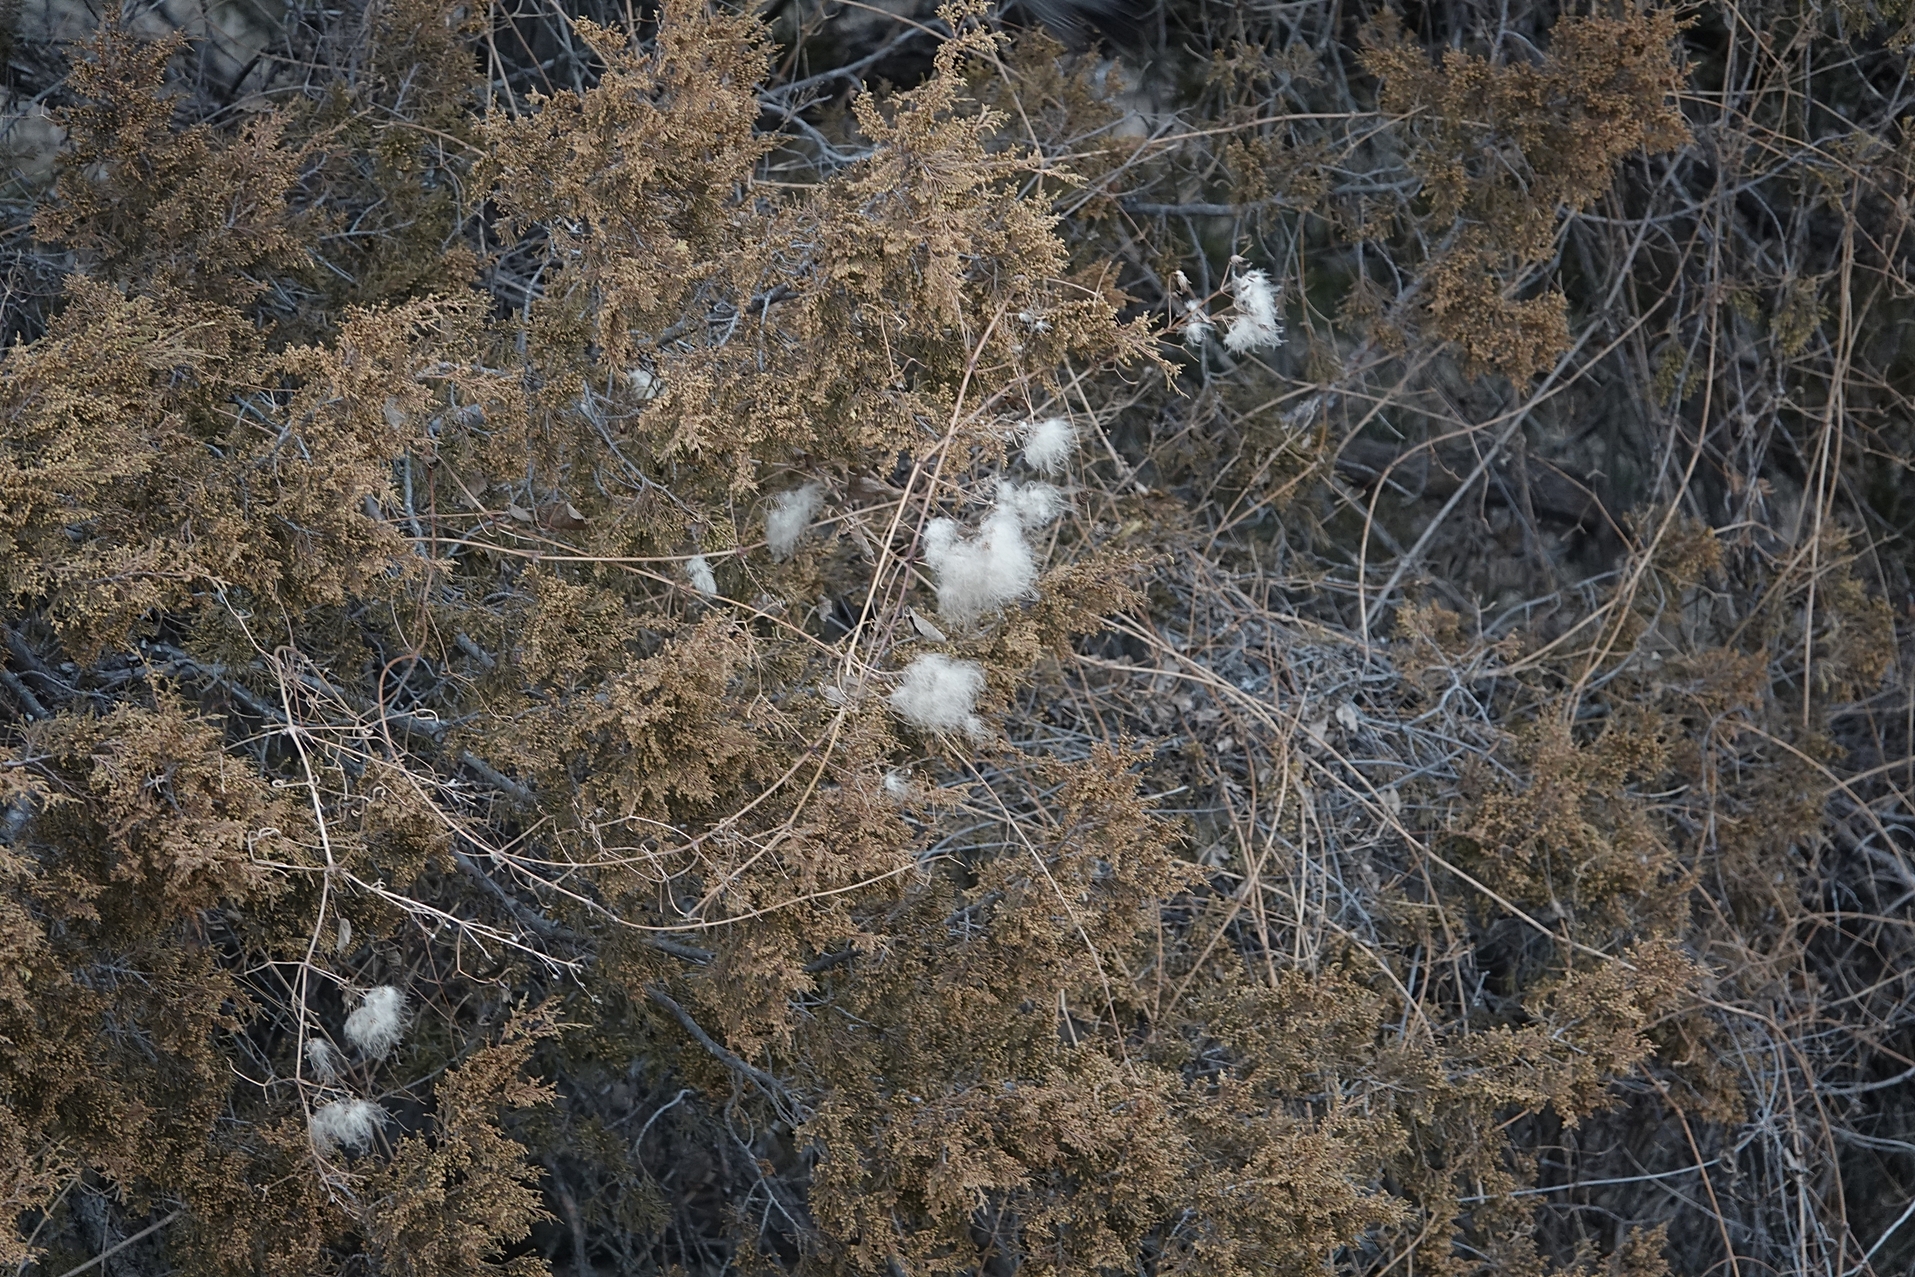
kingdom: Plantae
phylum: Tracheophyta
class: Magnoliopsida
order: Ranunculales
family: Ranunculaceae
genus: Clematis
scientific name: Clematis ligusticifolia
